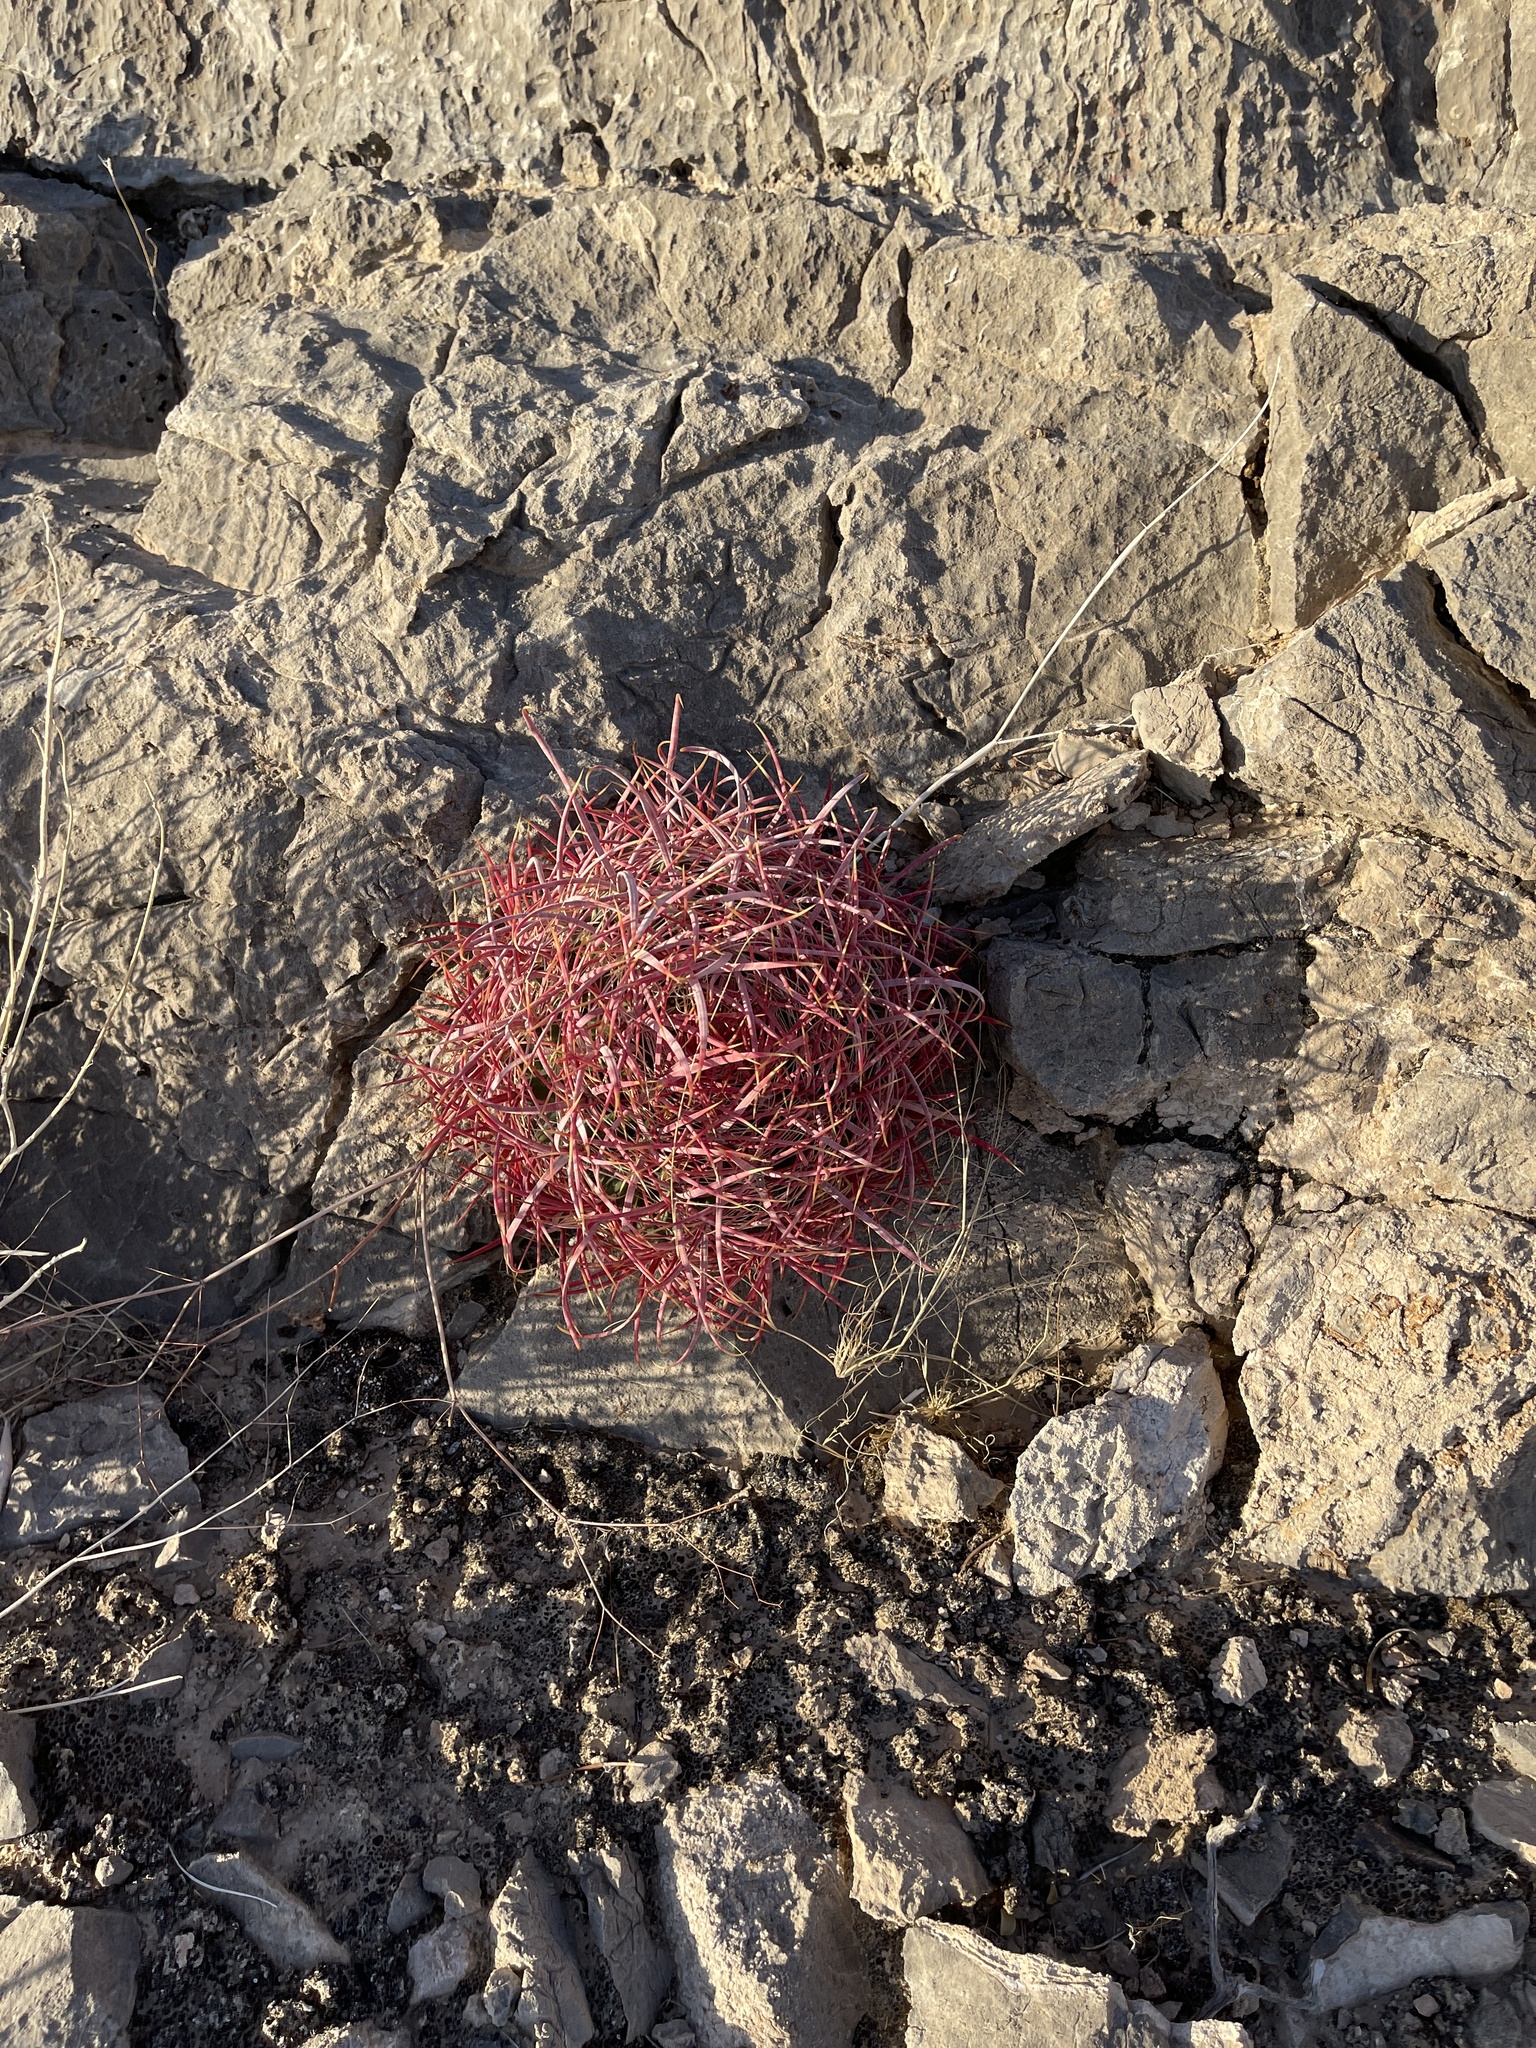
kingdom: Plantae
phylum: Tracheophyta
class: Magnoliopsida
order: Caryophyllales
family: Cactaceae
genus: Ferocactus
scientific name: Ferocactus cylindraceus
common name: California barrel cactus
